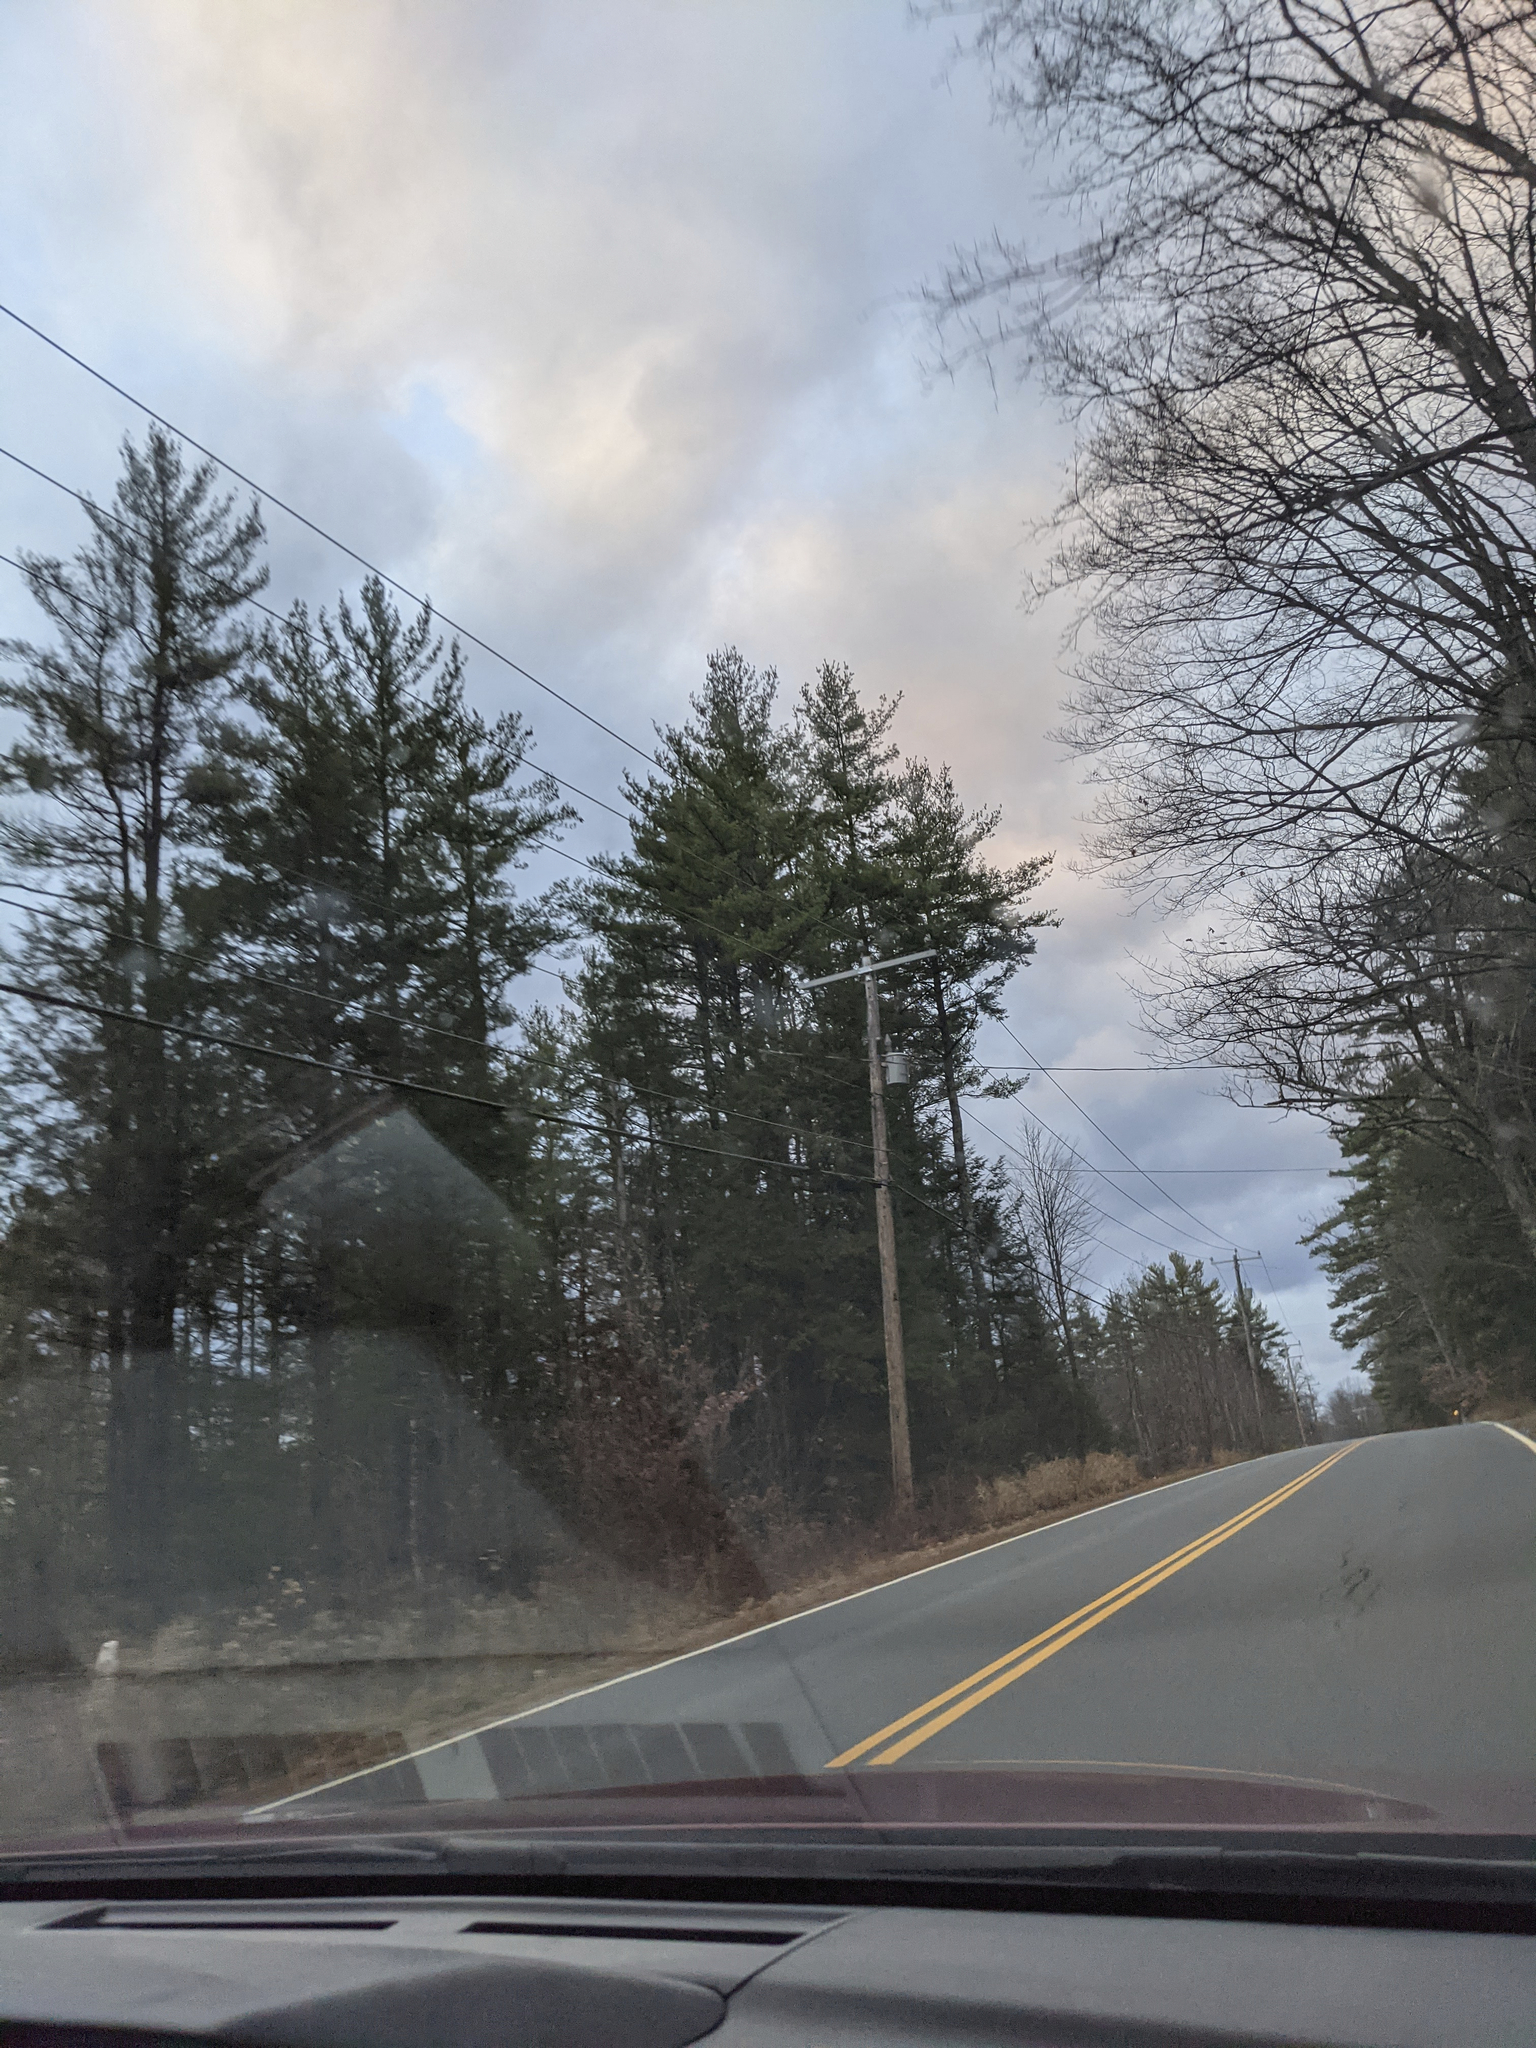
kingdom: Plantae
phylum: Tracheophyta
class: Pinopsida
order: Pinales
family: Pinaceae
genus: Pinus
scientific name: Pinus strobus
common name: Weymouth pine
